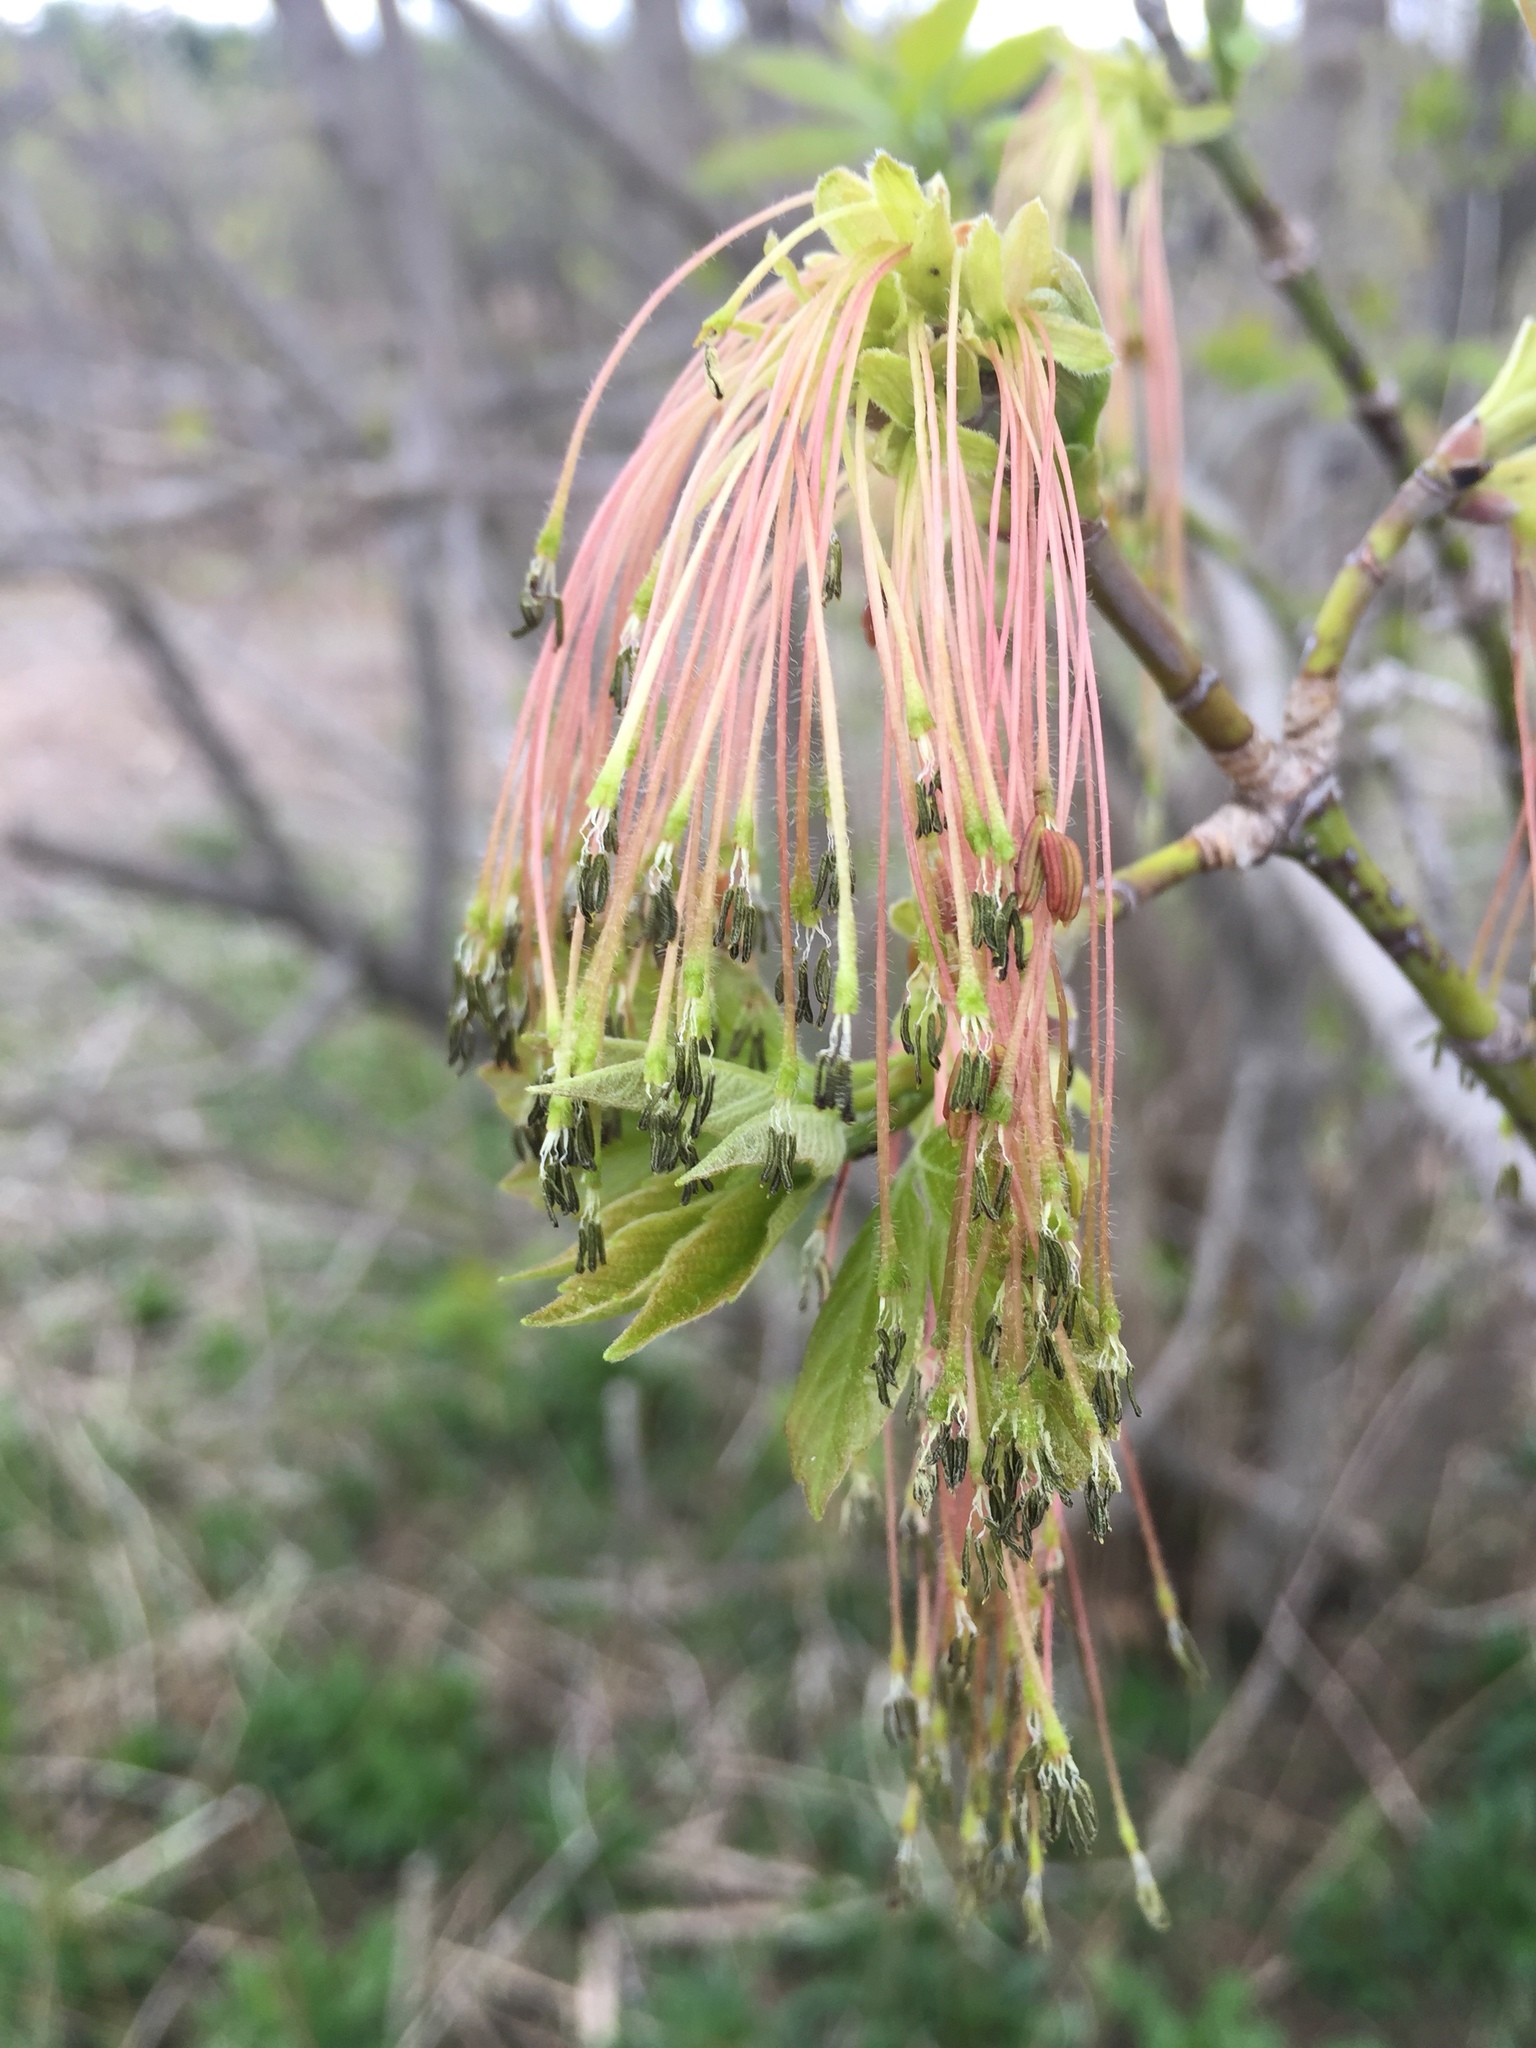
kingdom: Plantae
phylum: Tracheophyta
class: Magnoliopsida
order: Sapindales
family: Sapindaceae
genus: Acer
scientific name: Acer negundo
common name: Ashleaf maple
